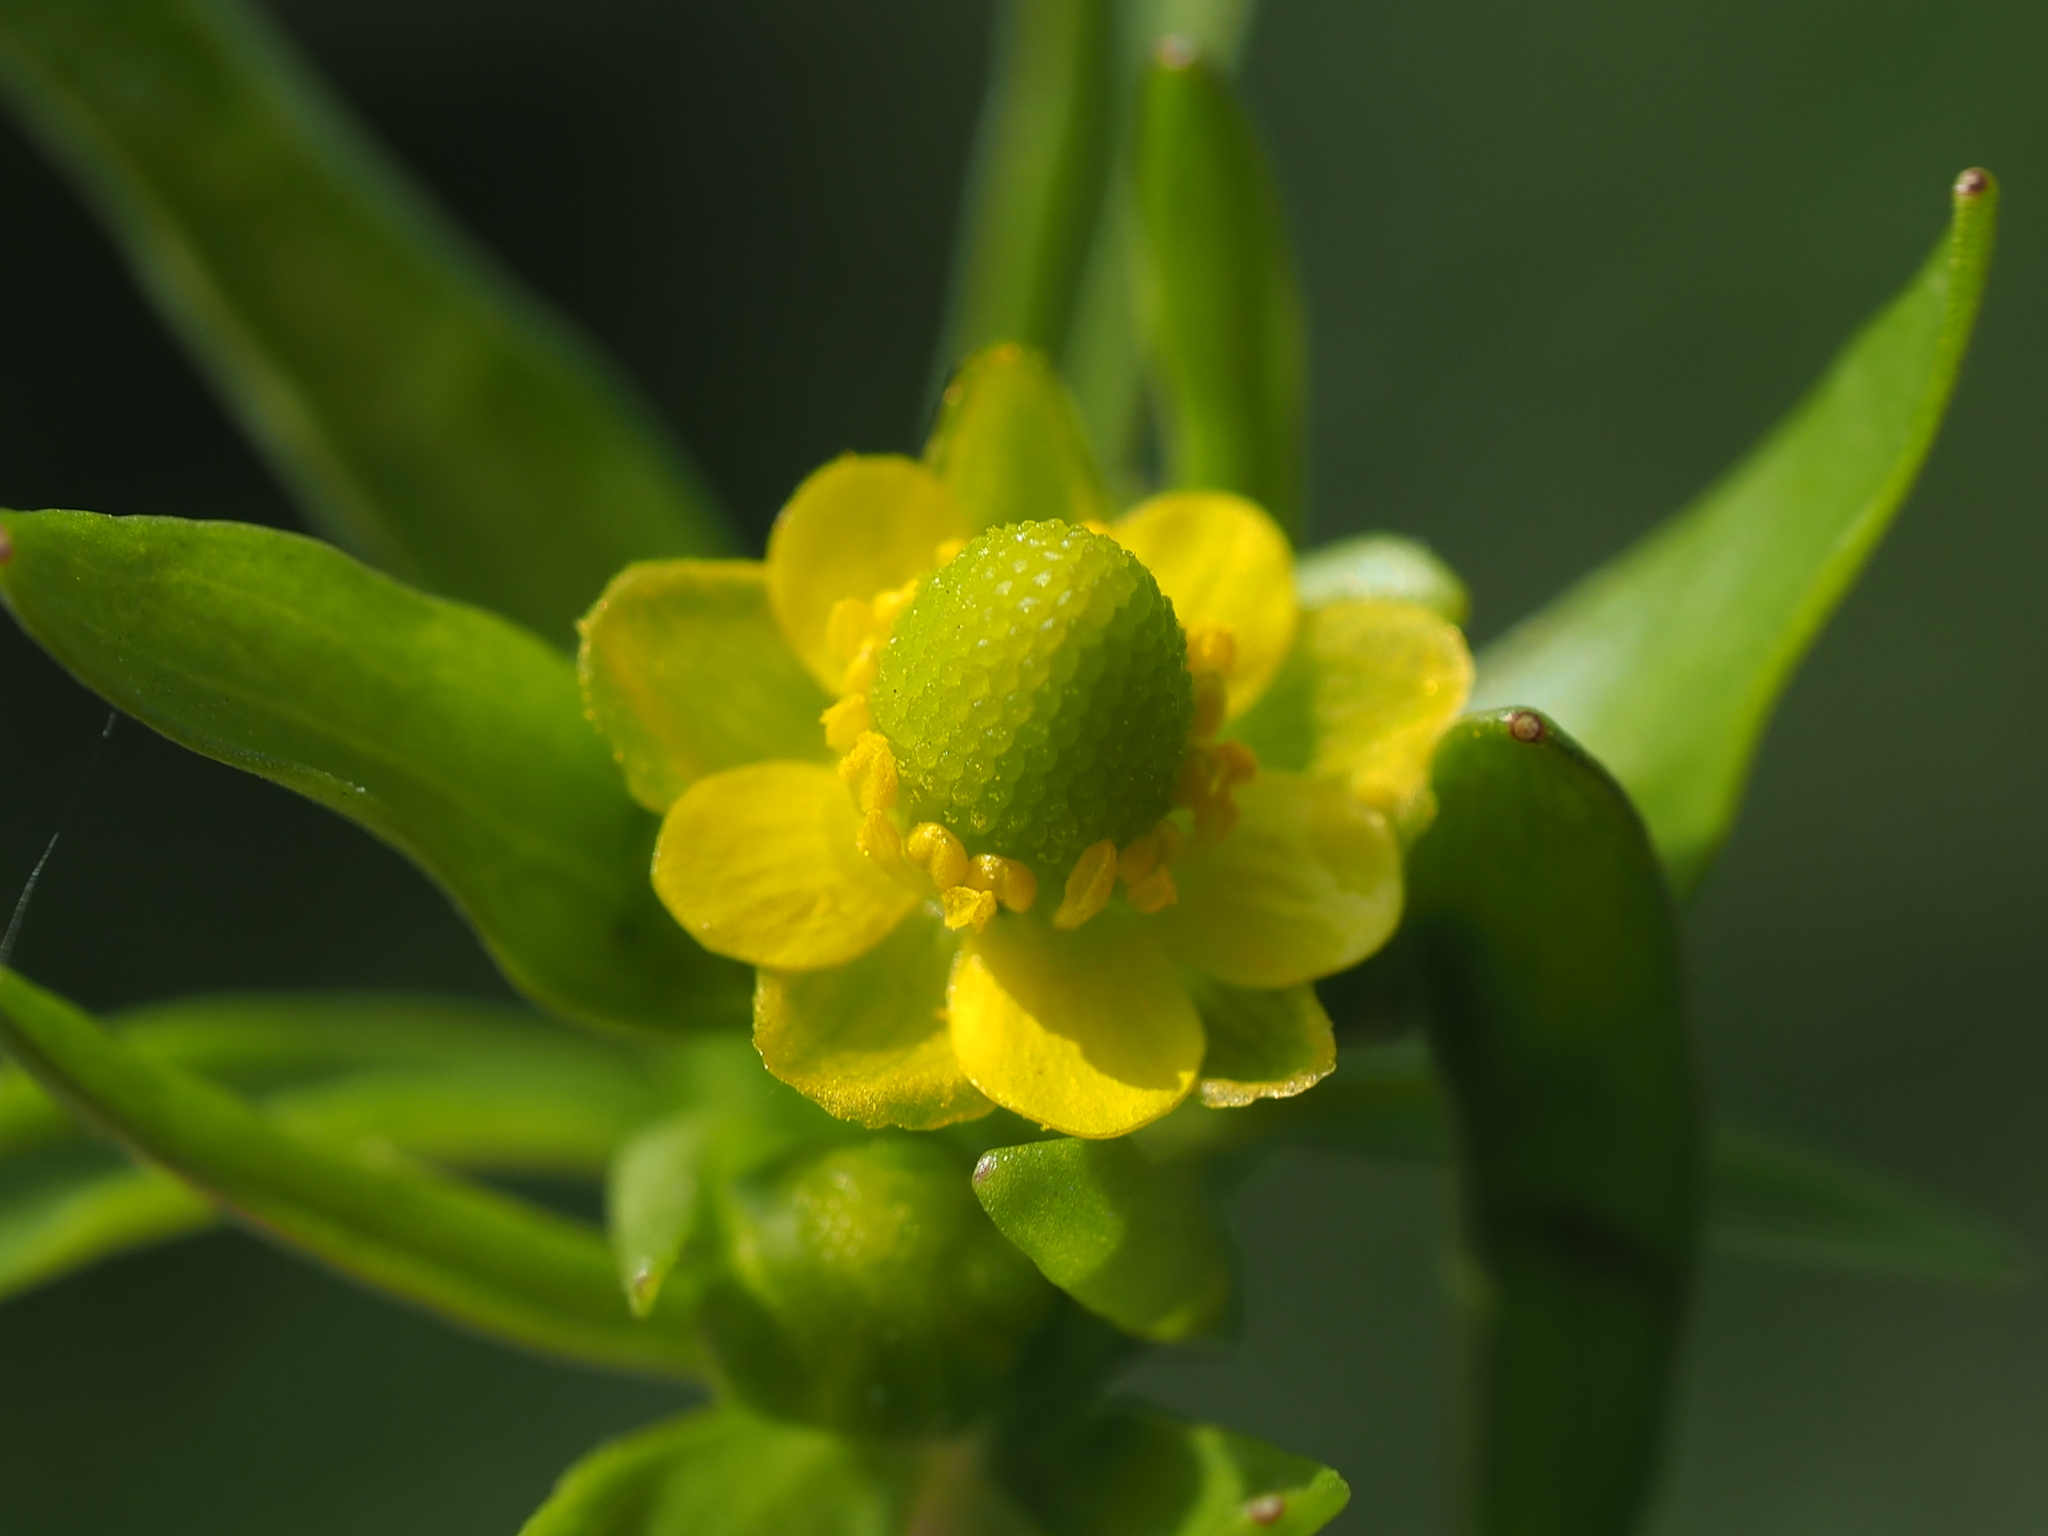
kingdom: Plantae
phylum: Tracheophyta
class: Magnoliopsida
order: Ranunculales
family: Ranunculaceae
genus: Ranunculus
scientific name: Ranunculus sceleratus
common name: Celery-leaved buttercup
